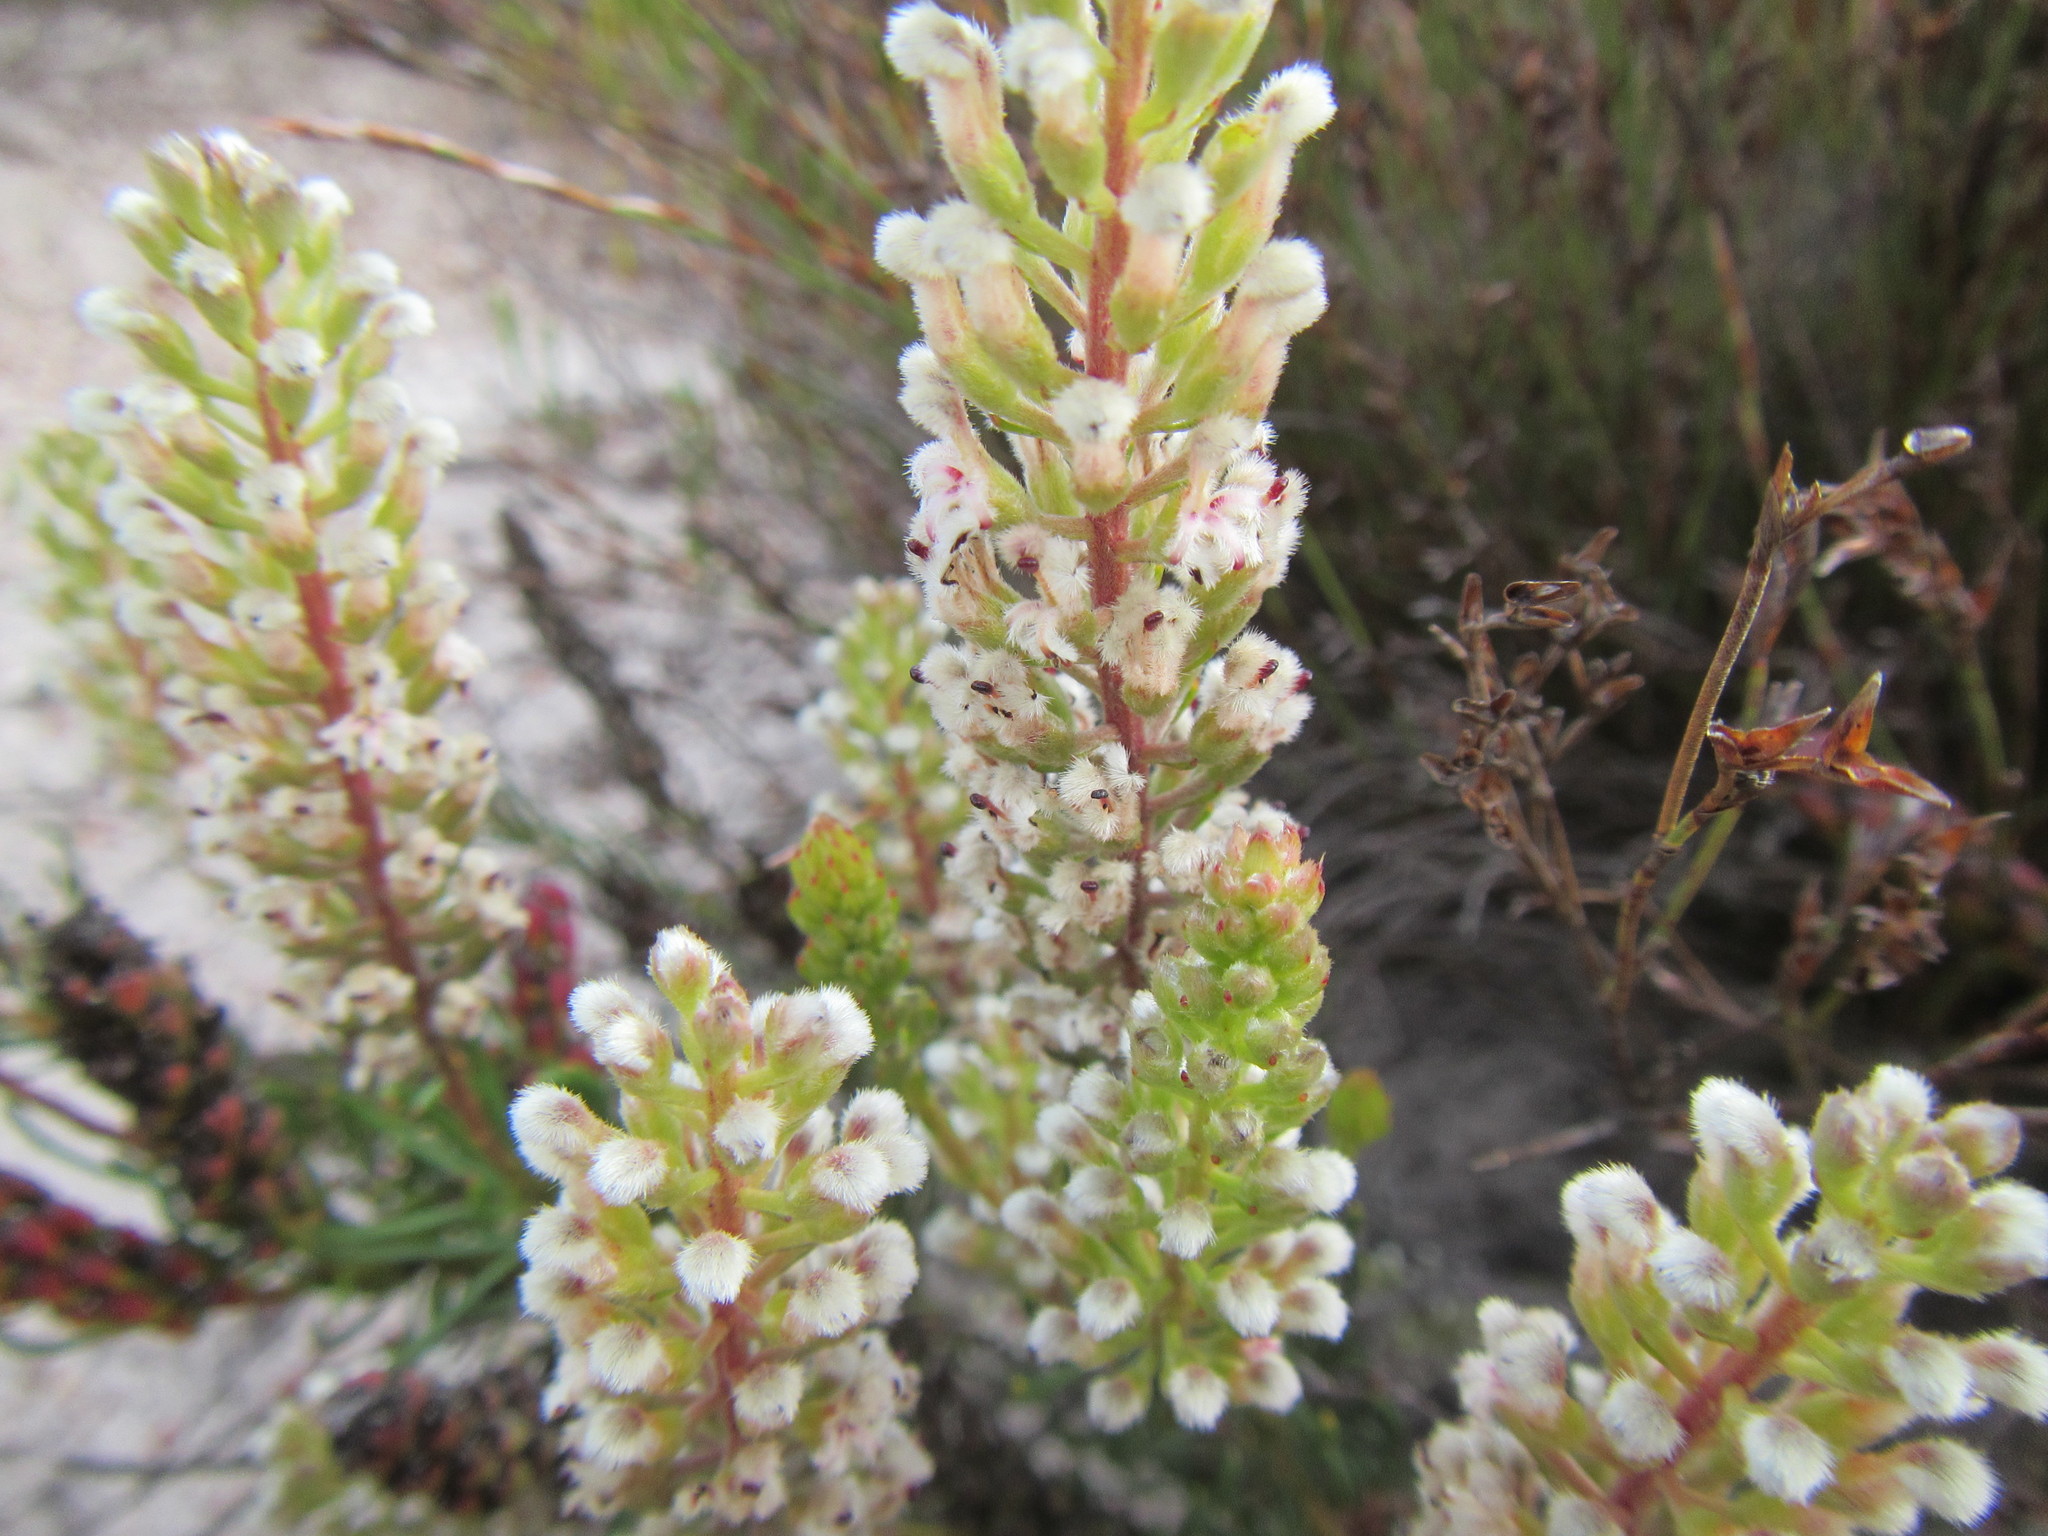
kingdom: Plantae
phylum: Tracheophyta
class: Magnoliopsida
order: Proteales
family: Proteaceae
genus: Spatalla
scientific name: Spatalla curvifolia
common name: White-stalked spoon
